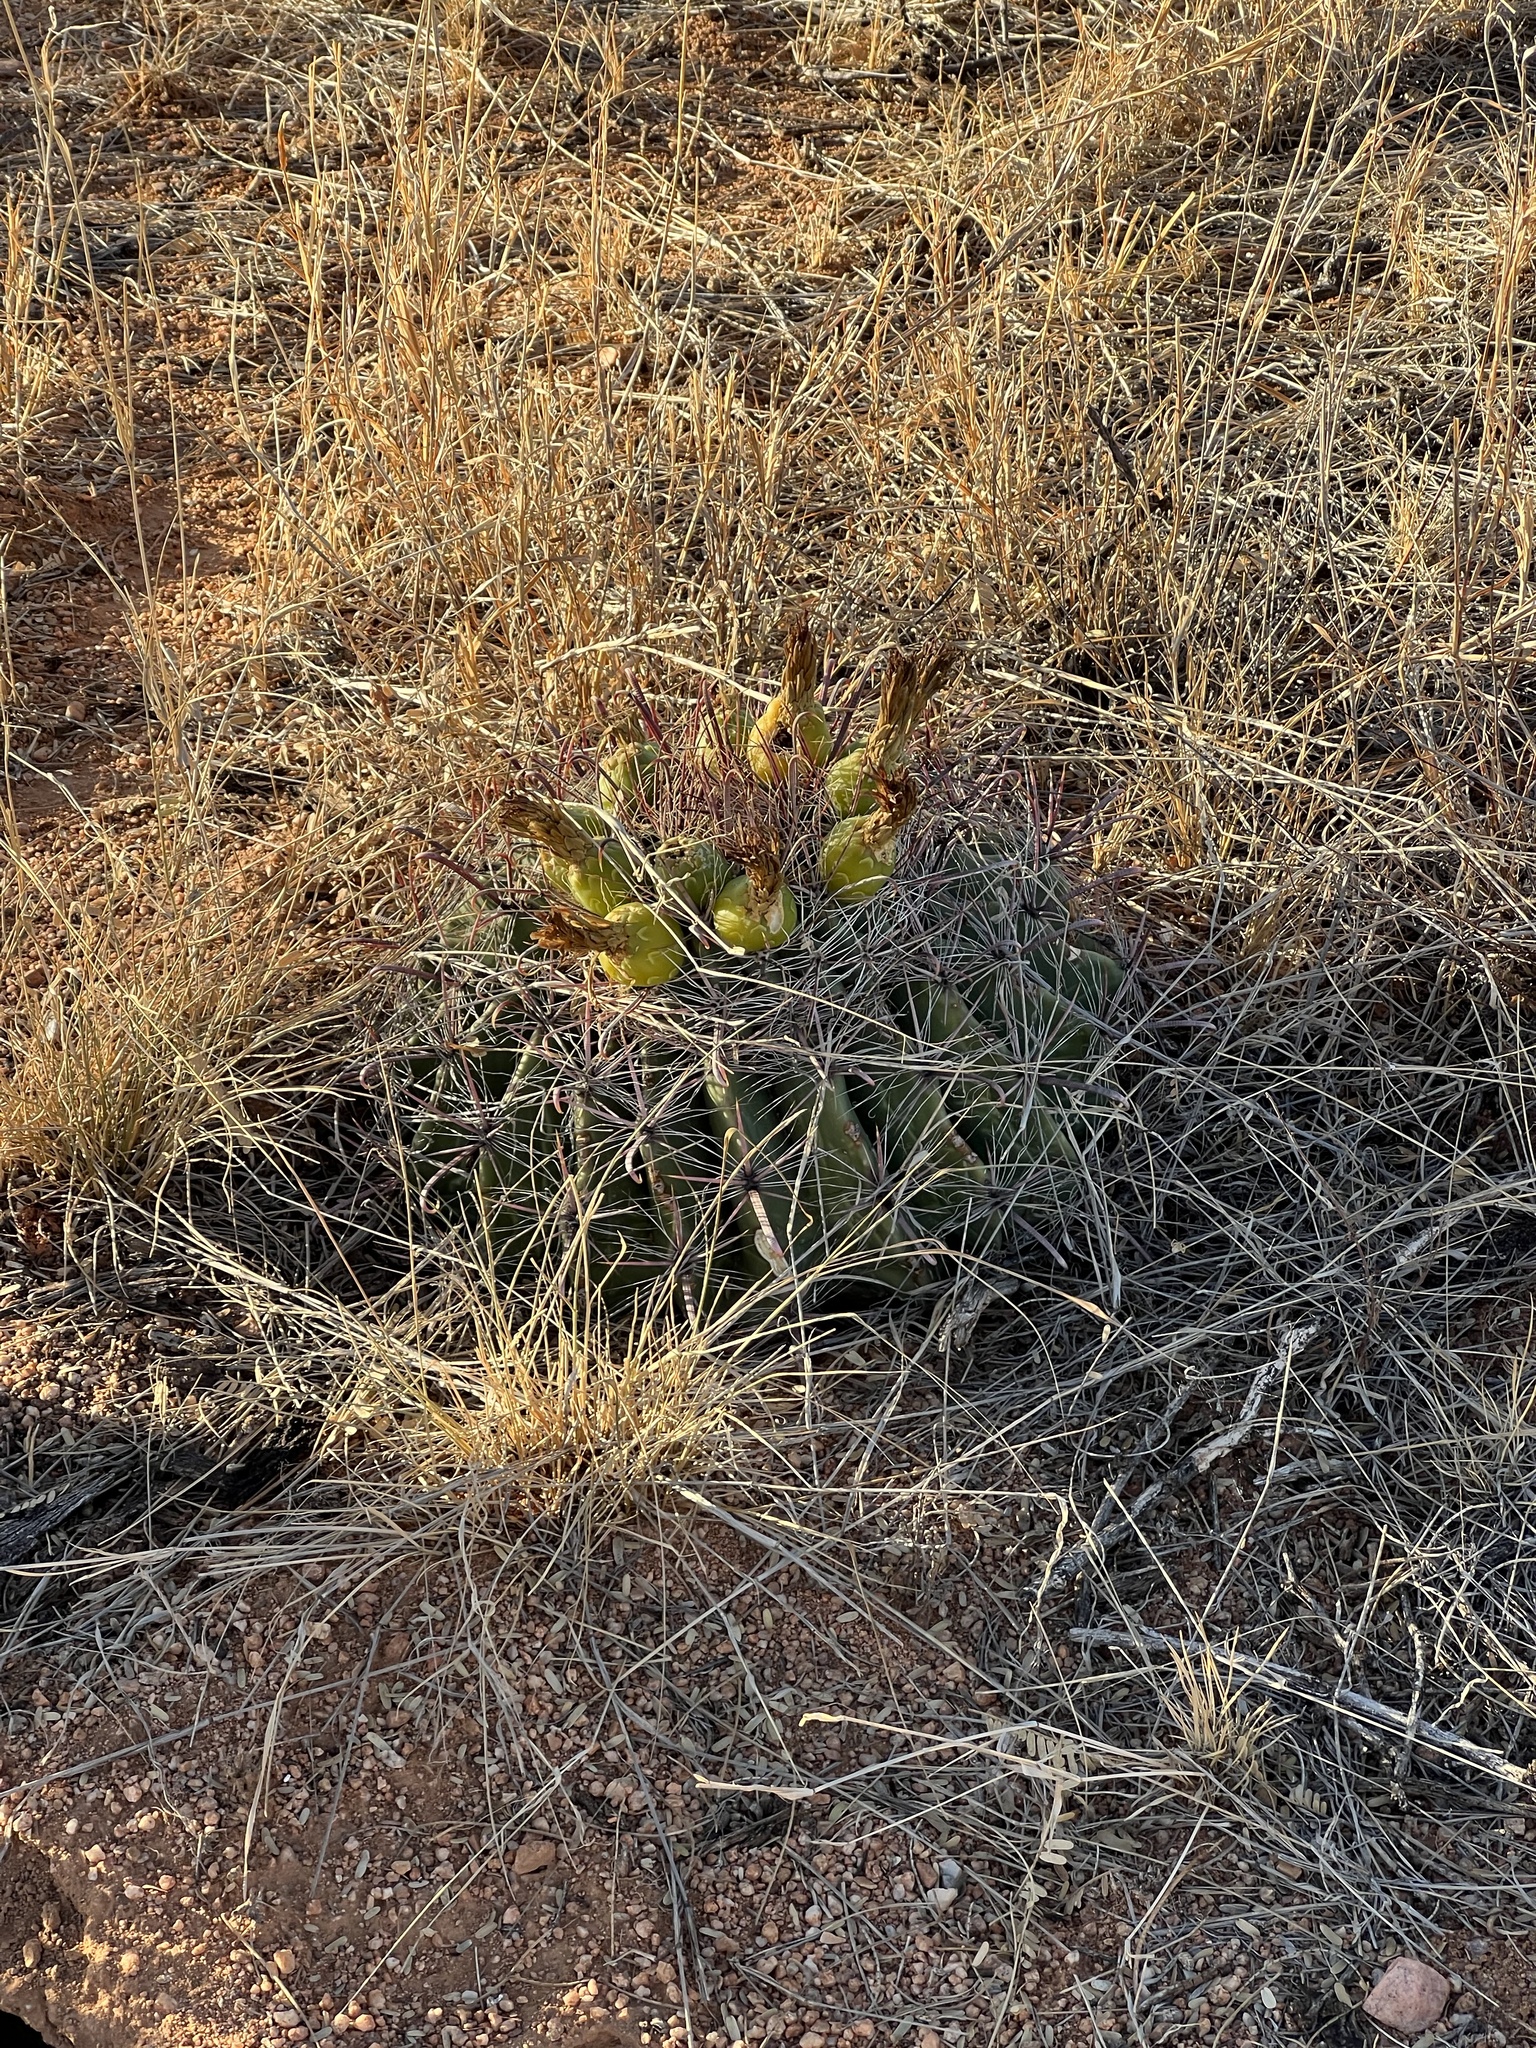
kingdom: Plantae
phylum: Tracheophyta
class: Magnoliopsida
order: Caryophyllales
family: Cactaceae
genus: Ferocactus
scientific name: Ferocactus wislizeni
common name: Candy barrel cactus
